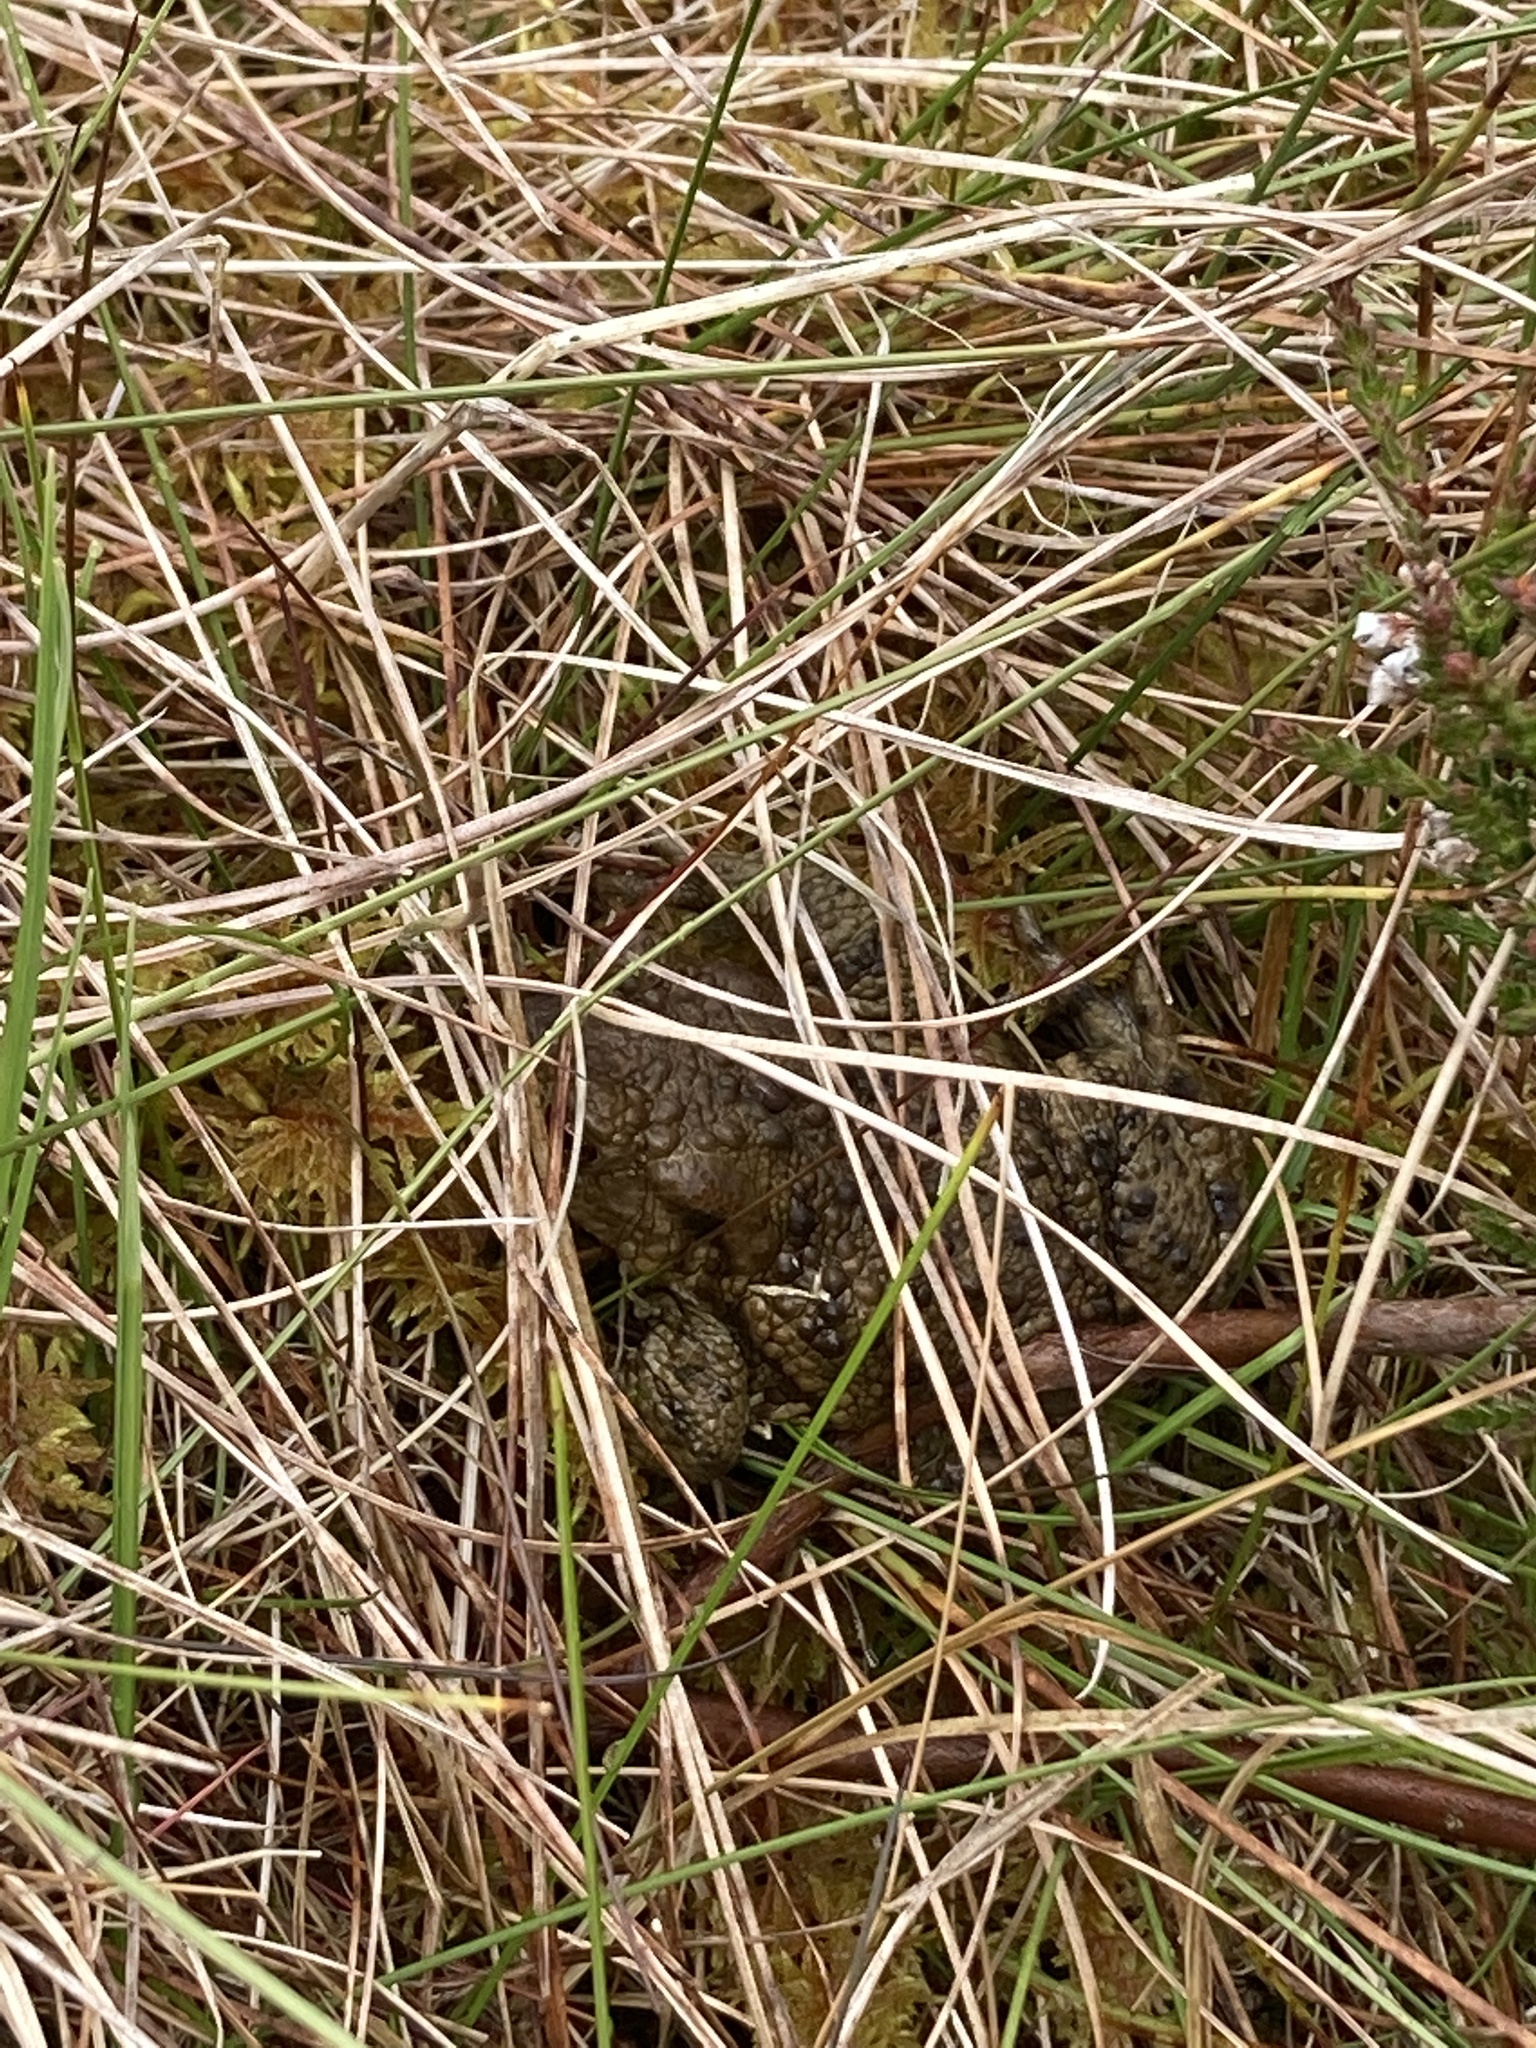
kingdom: Animalia
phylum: Chordata
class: Amphibia
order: Anura
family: Bufonidae
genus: Bufo
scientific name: Bufo bufo
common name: Common toad
